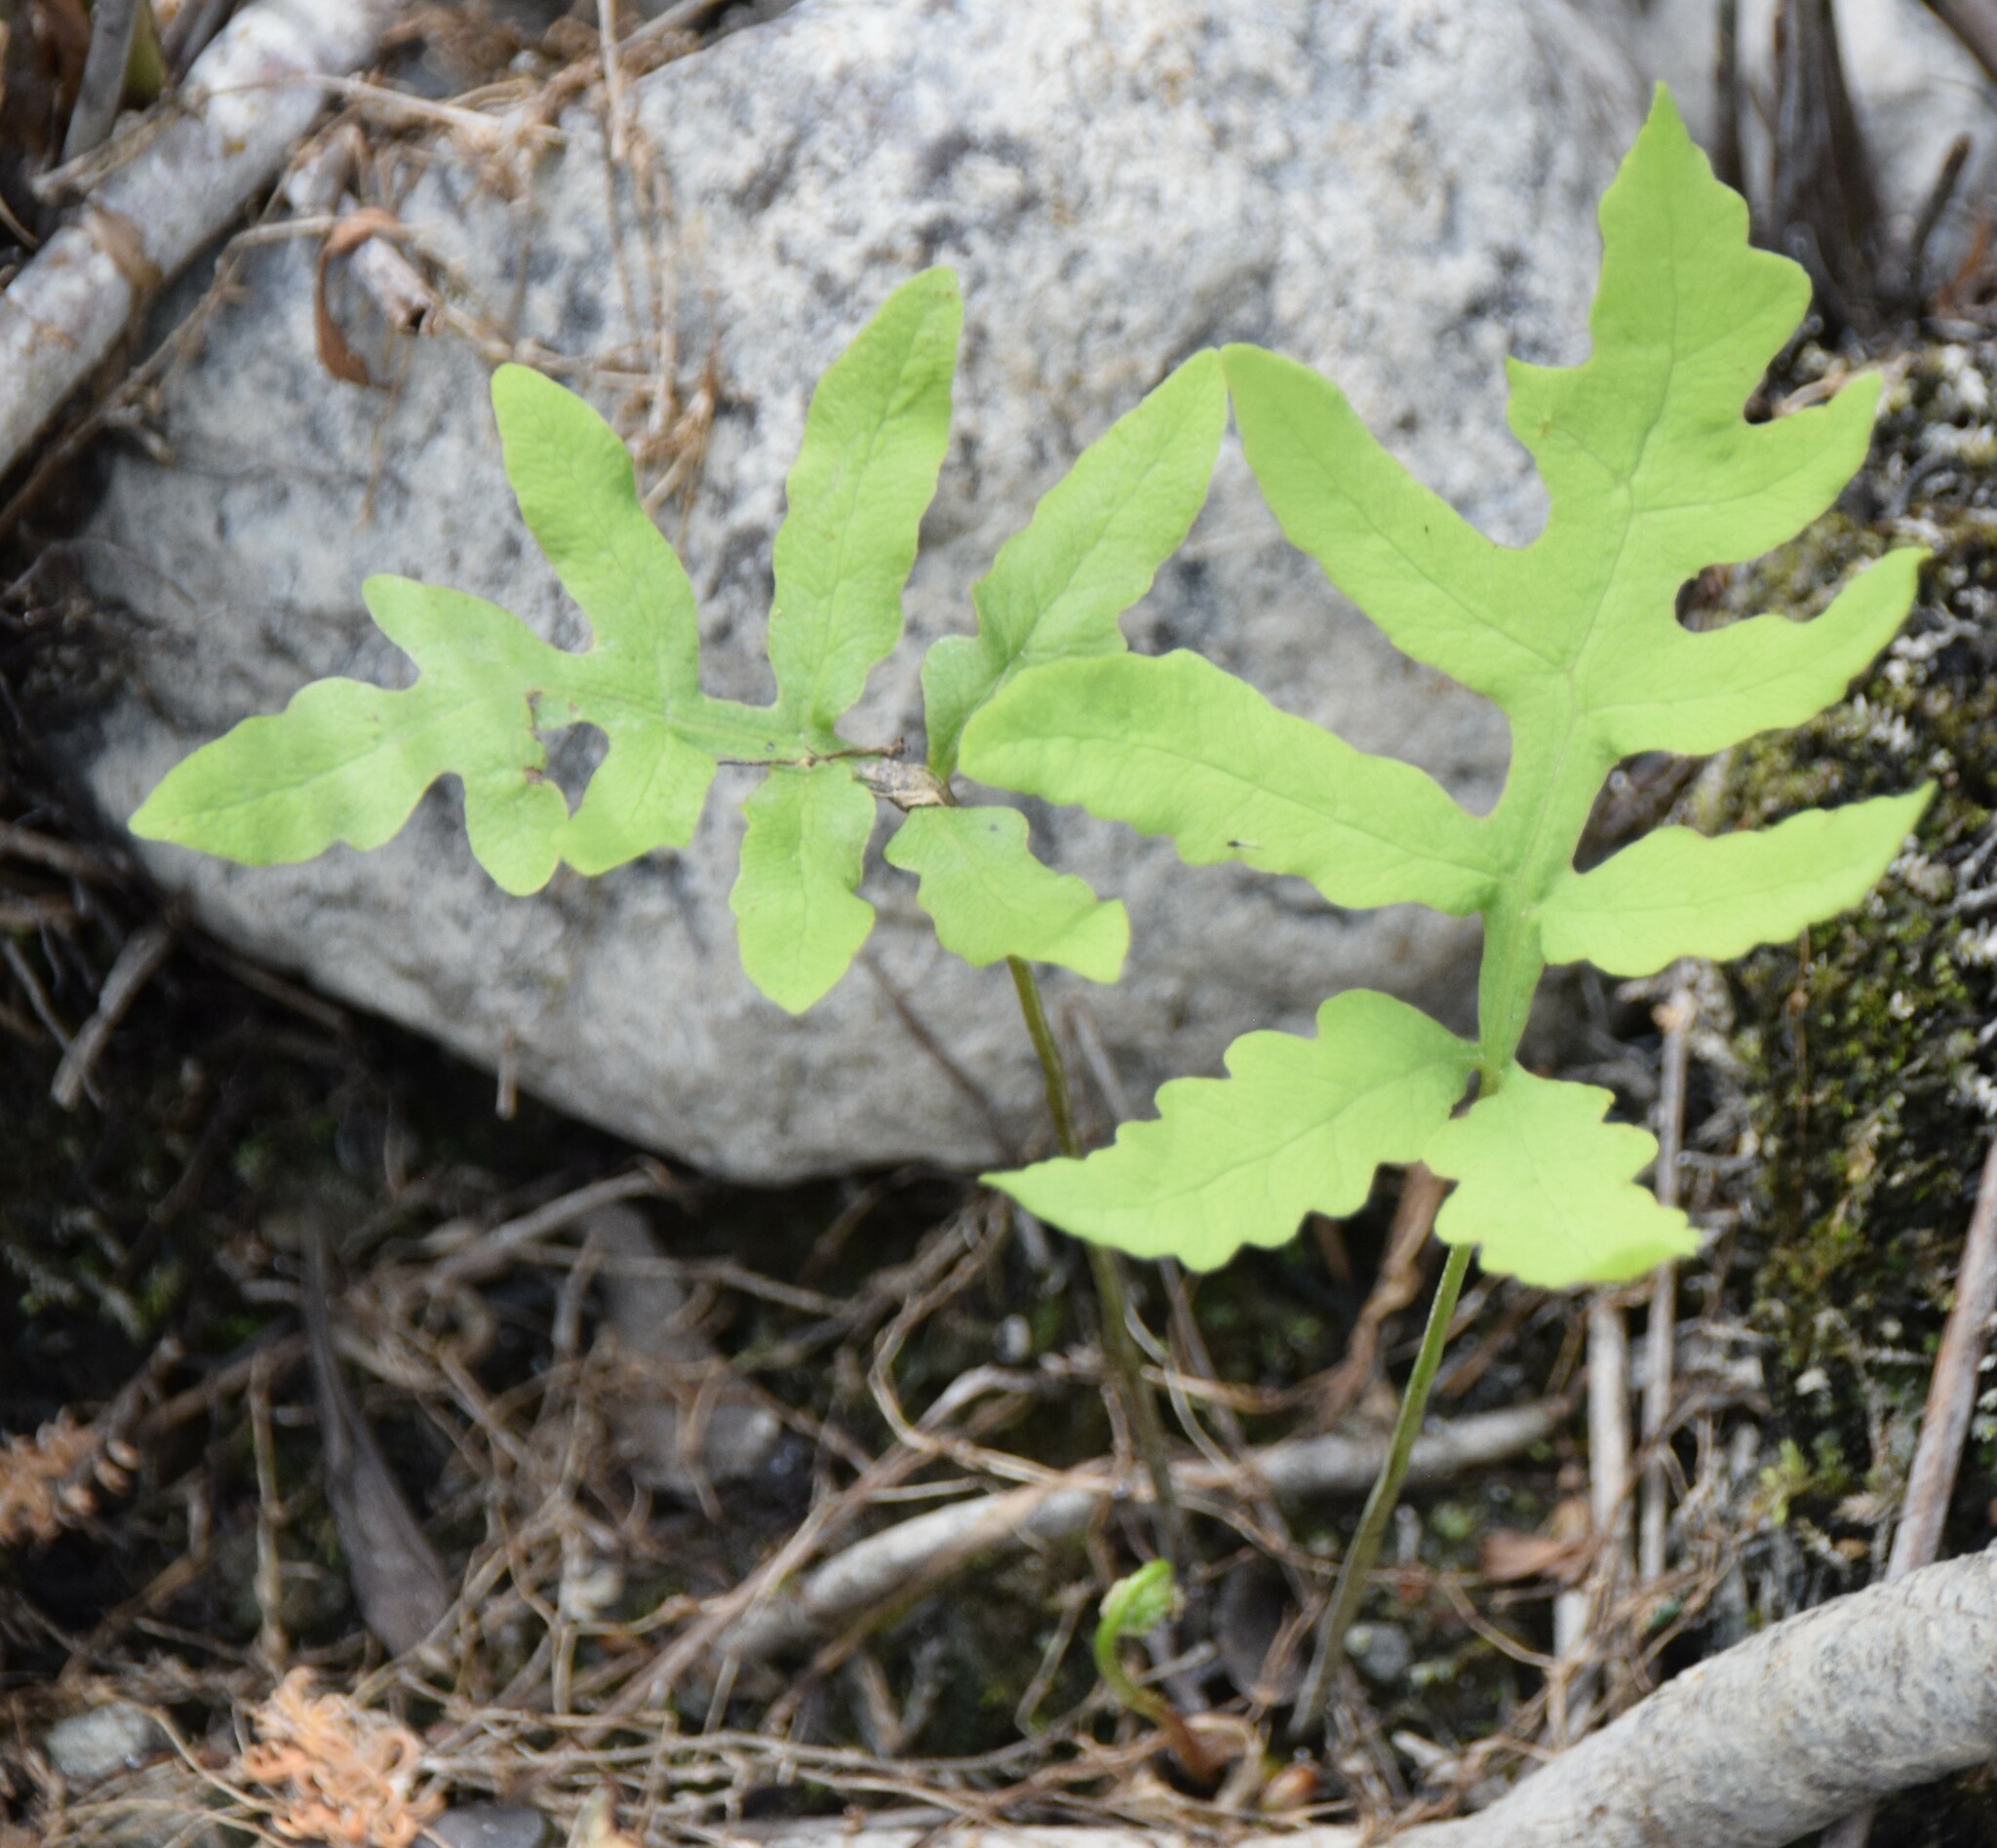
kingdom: Plantae
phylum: Tracheophyta
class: Polypodiopsida
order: Polypodiales
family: Onocleaceae
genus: Onoclea
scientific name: Onoclea sensibilis
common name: Sensitive fern
